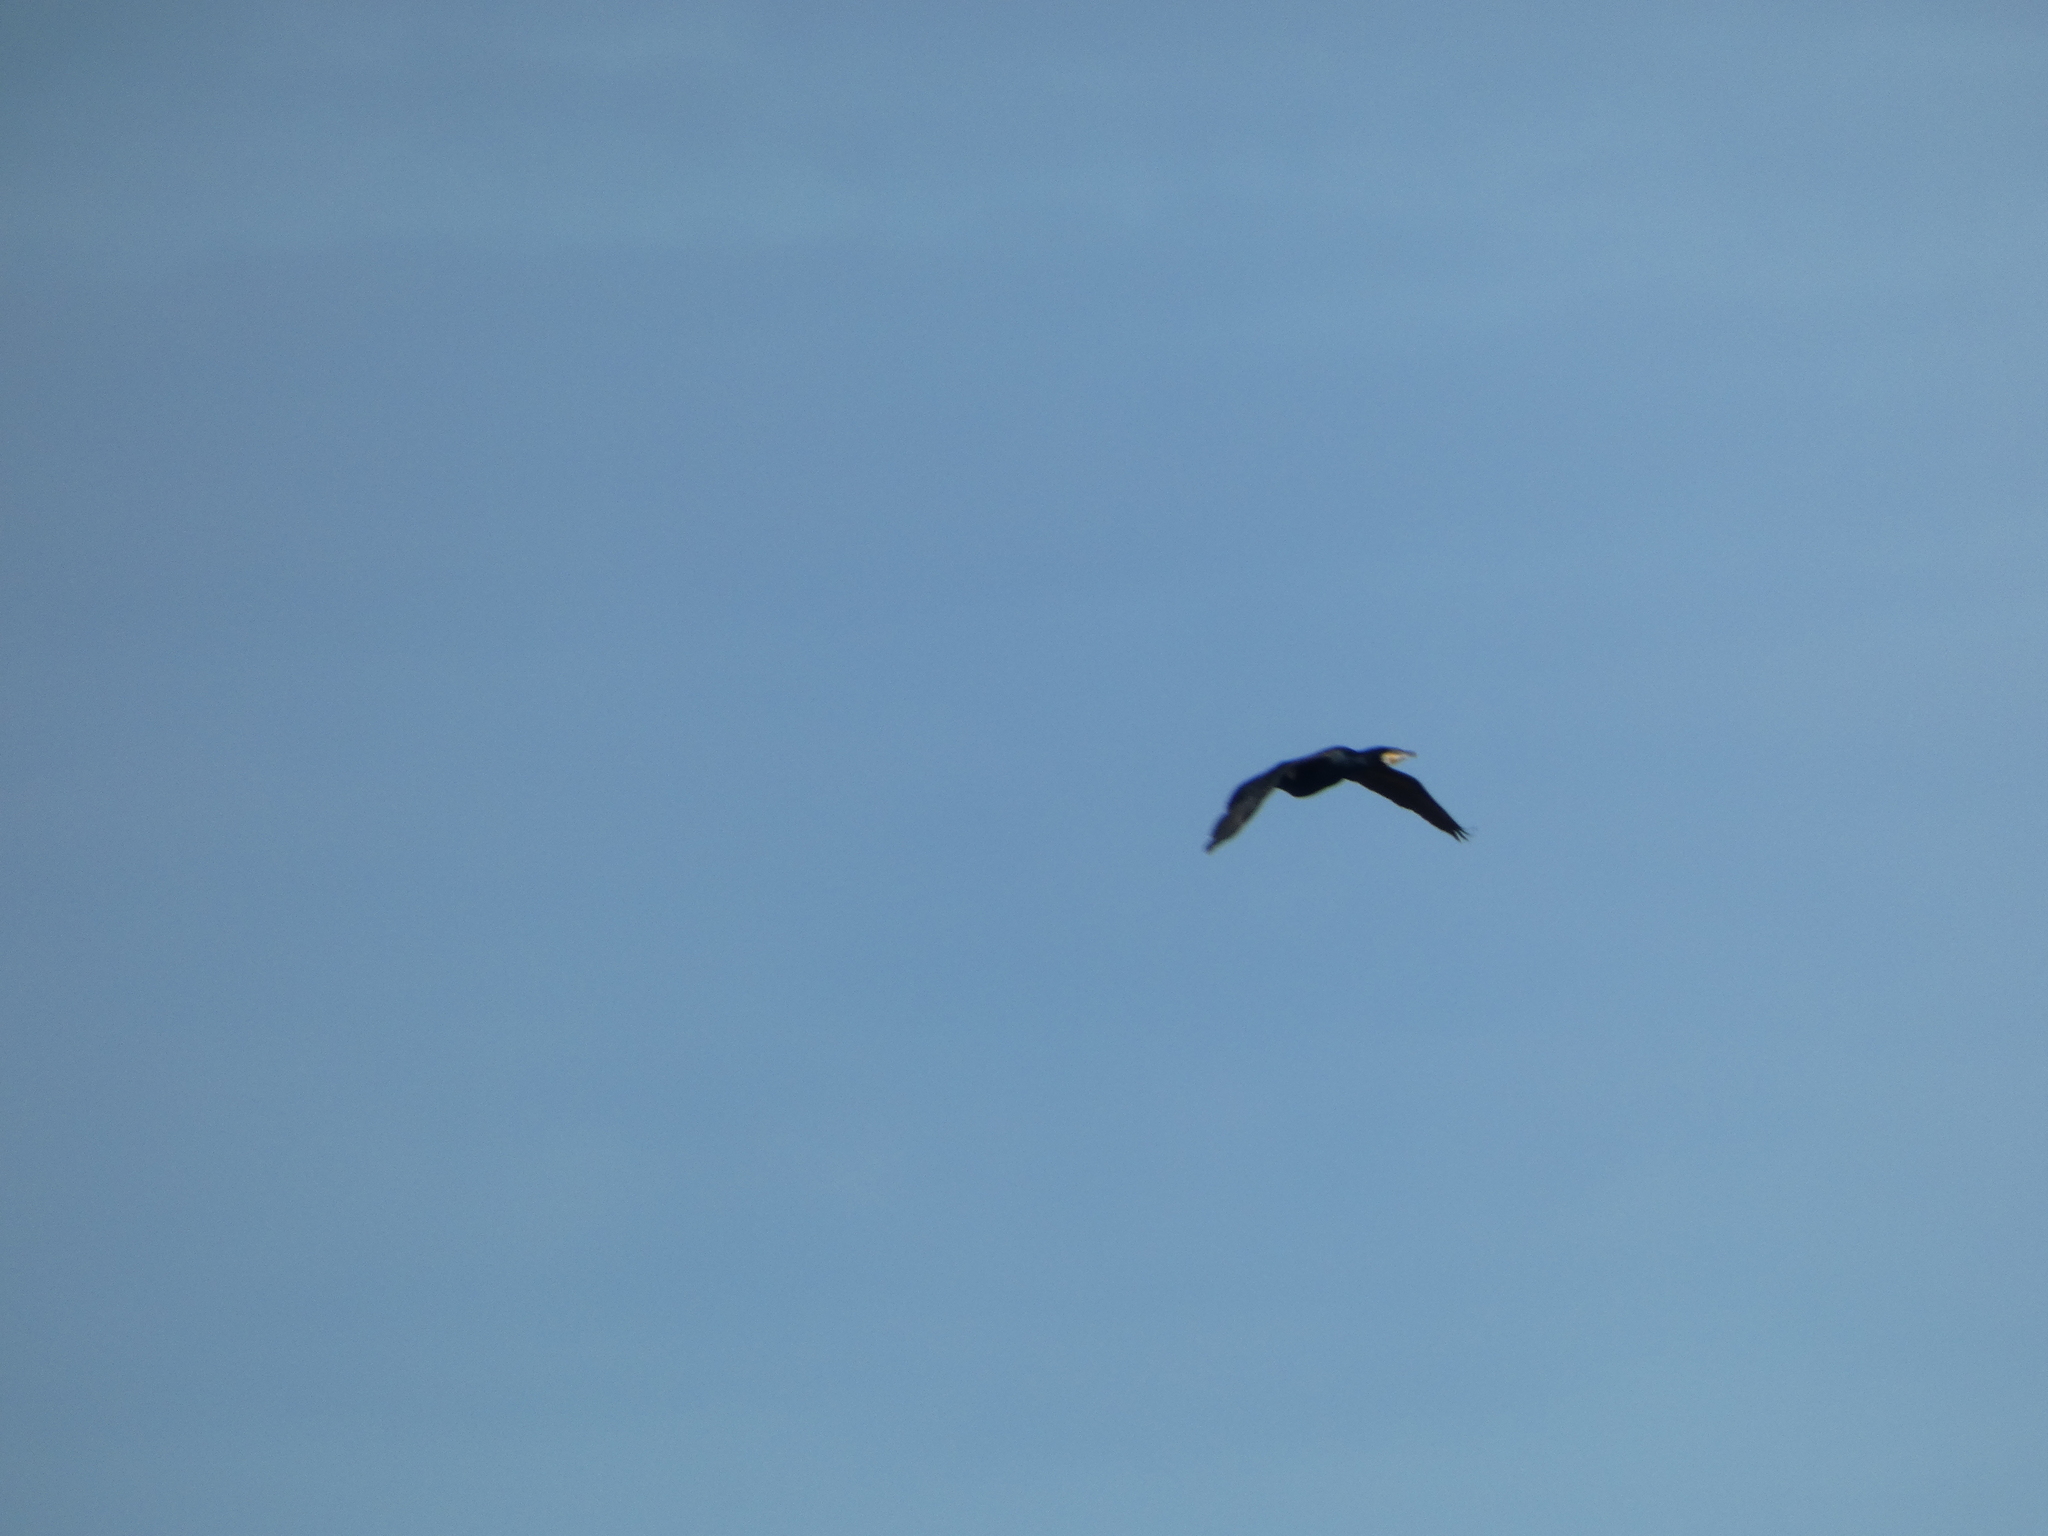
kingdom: Animalia
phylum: Chordata
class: Aves
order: Suliformes
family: Phalacrocoracidae
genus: Phalacrocorax
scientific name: Phalacrocorax carbo
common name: Great cormorant
